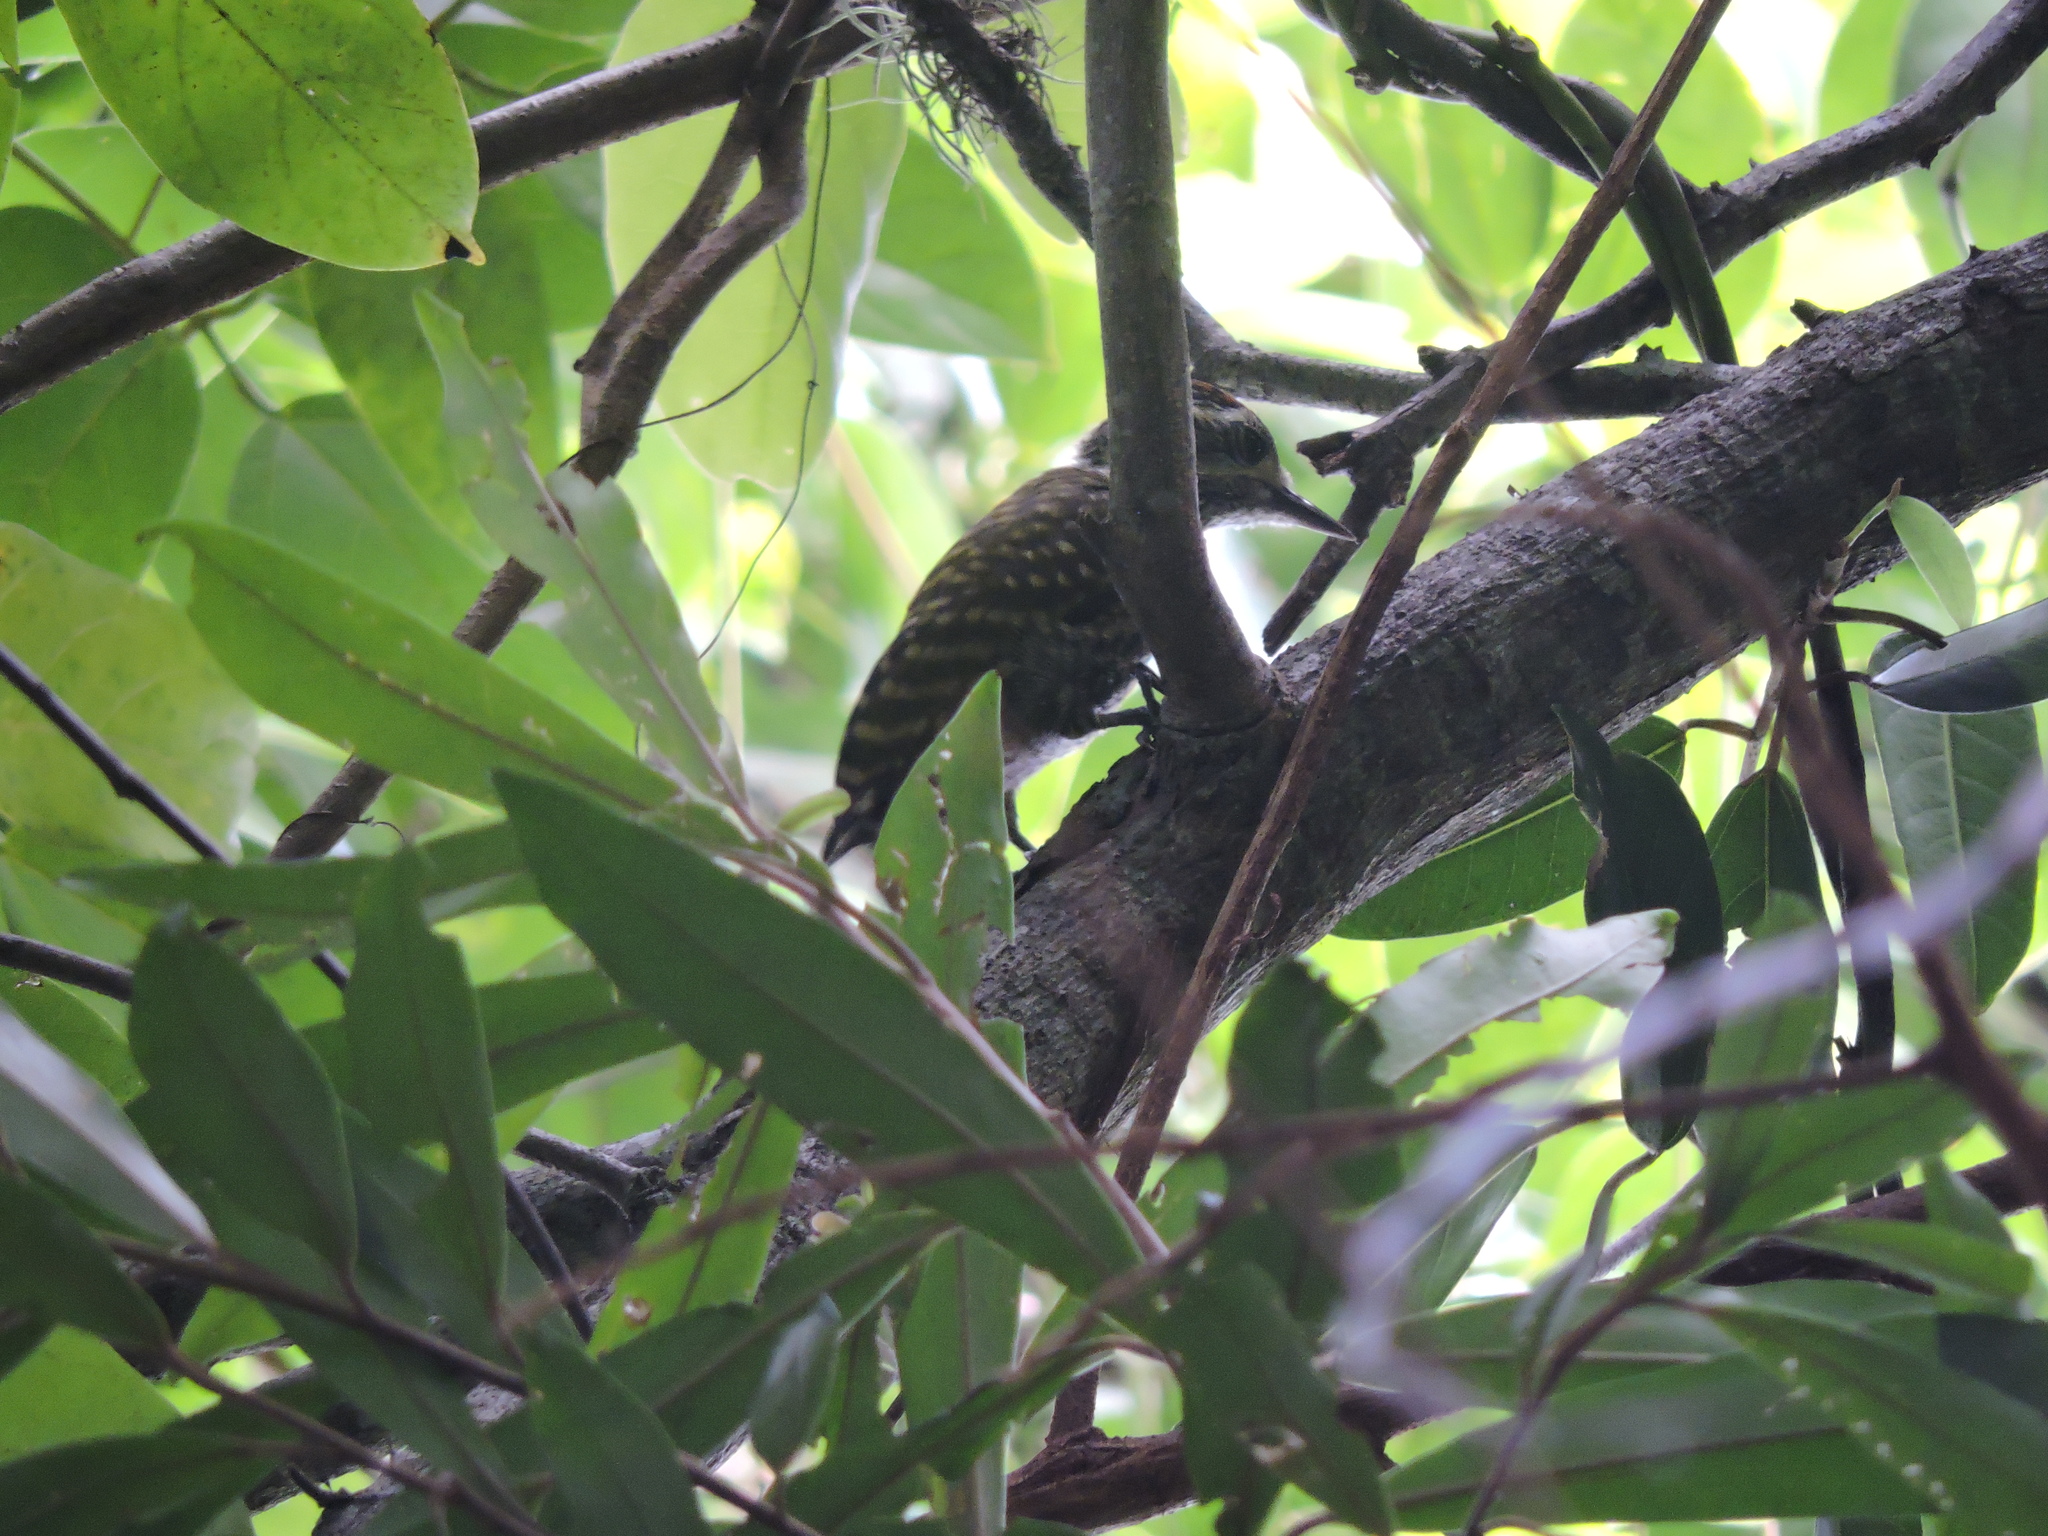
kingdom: Animalia
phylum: Chordata
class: Aves
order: Piciformes
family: Picidae
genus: Veniliornis
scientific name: Veniliornis spilogaster
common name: White-spotted woodpecker
